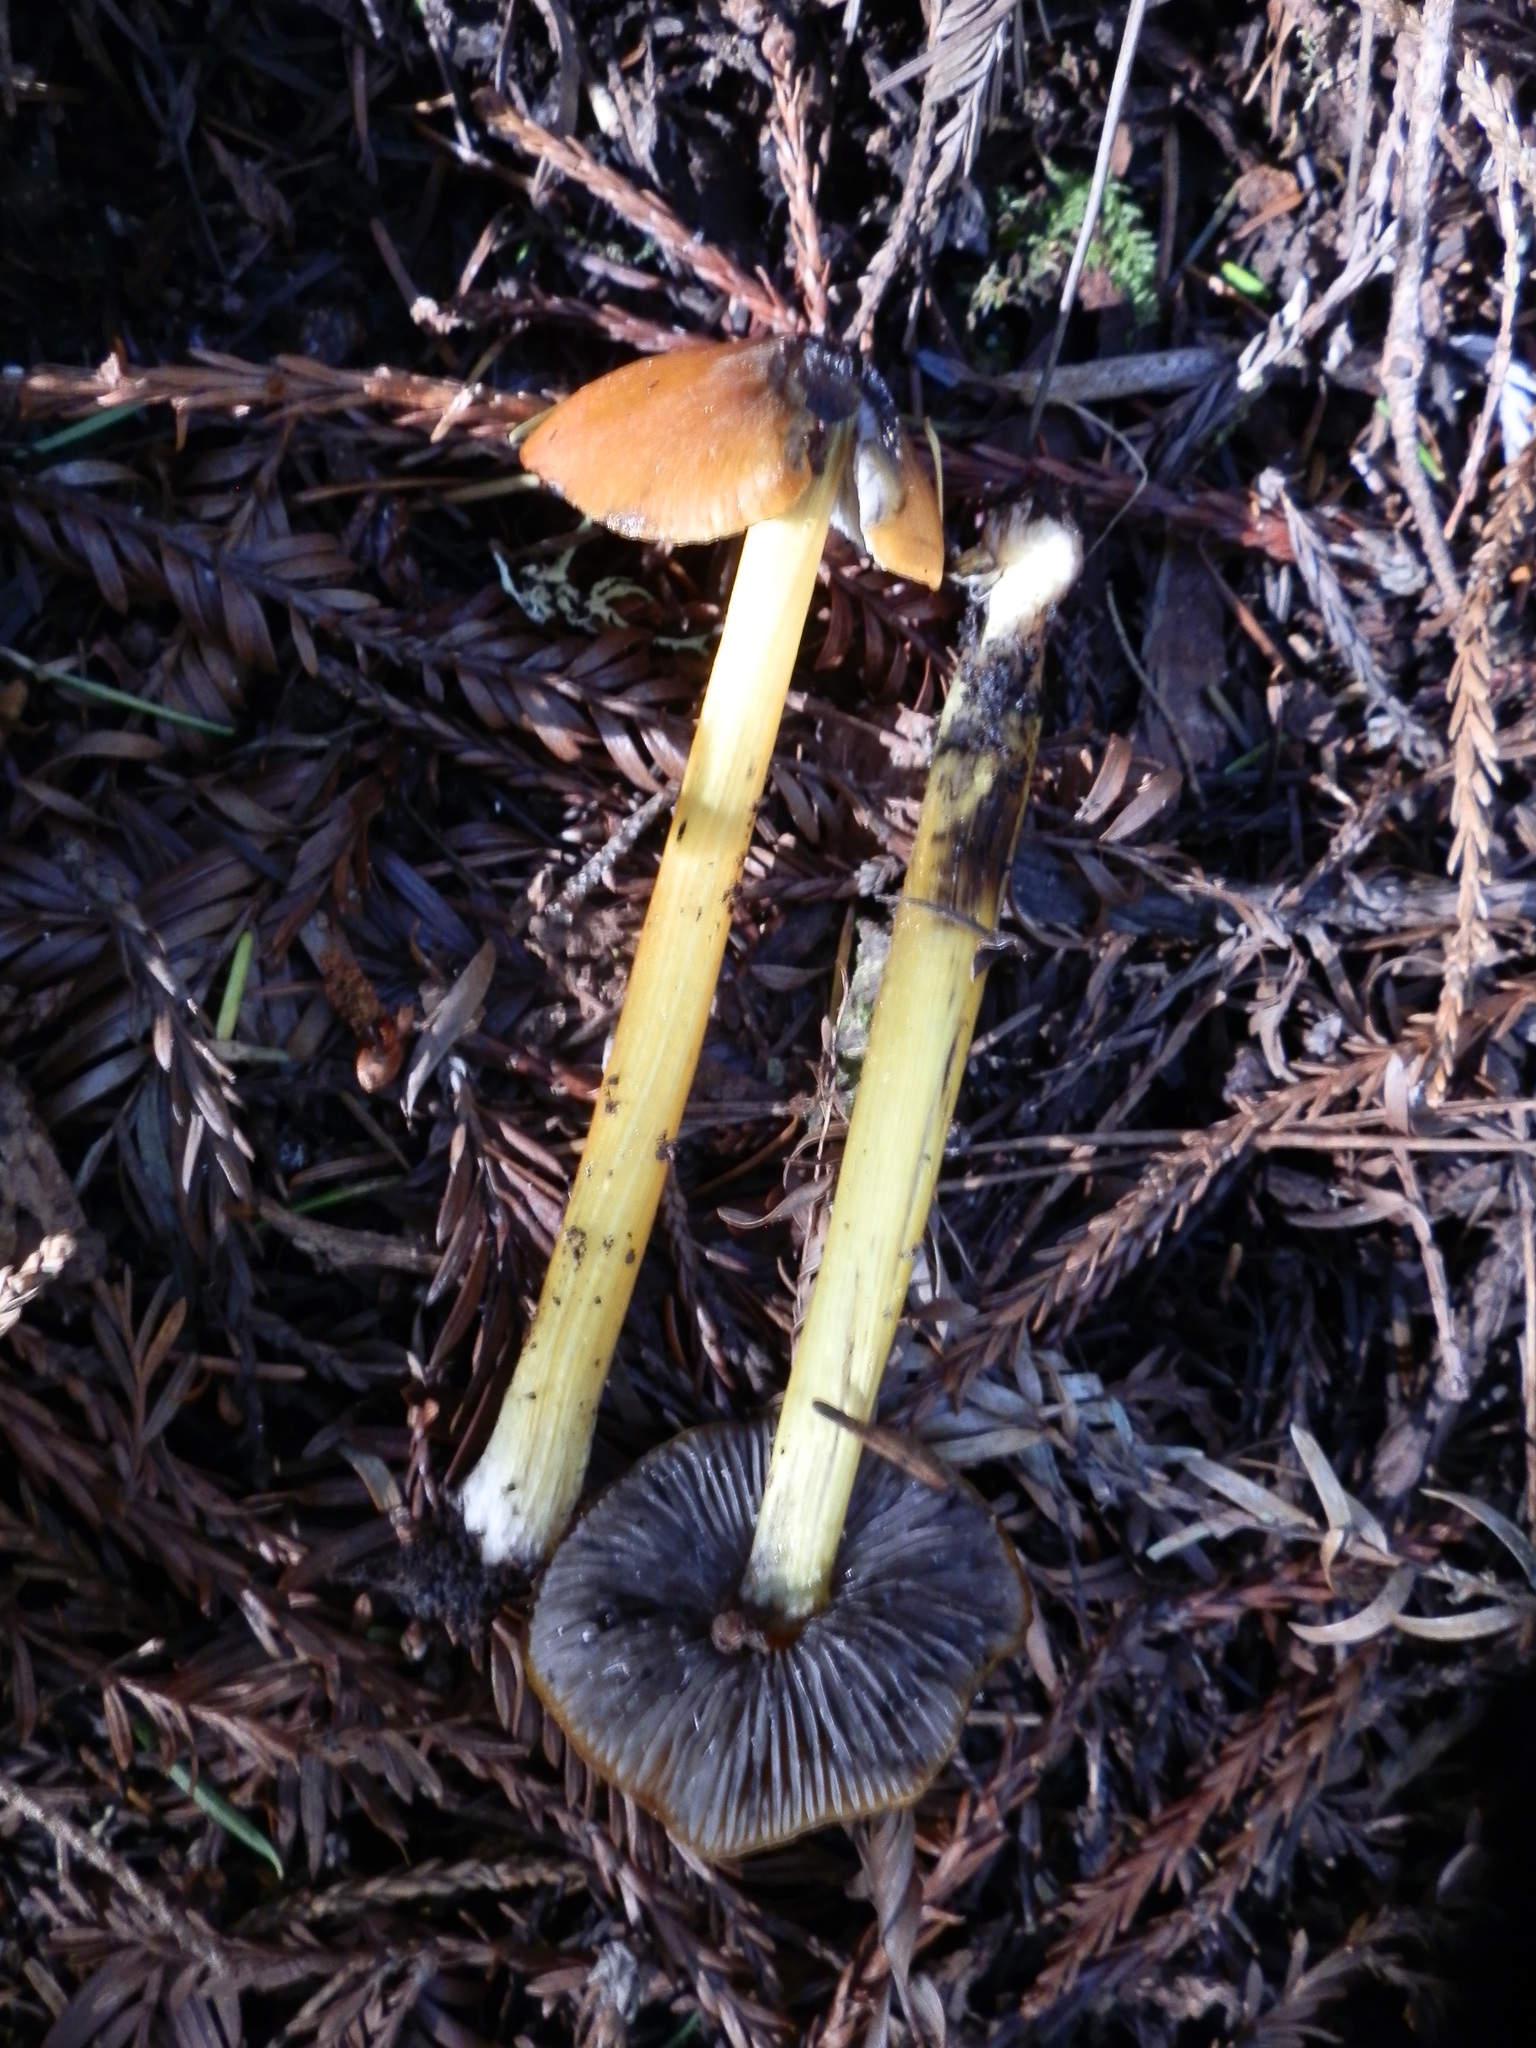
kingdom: Fungi
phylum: Basidiomycota
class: Agaricomycetes
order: Agaricales
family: Hygrophoraceae
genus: Hygrocybe
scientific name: Hygrocybe singeri
